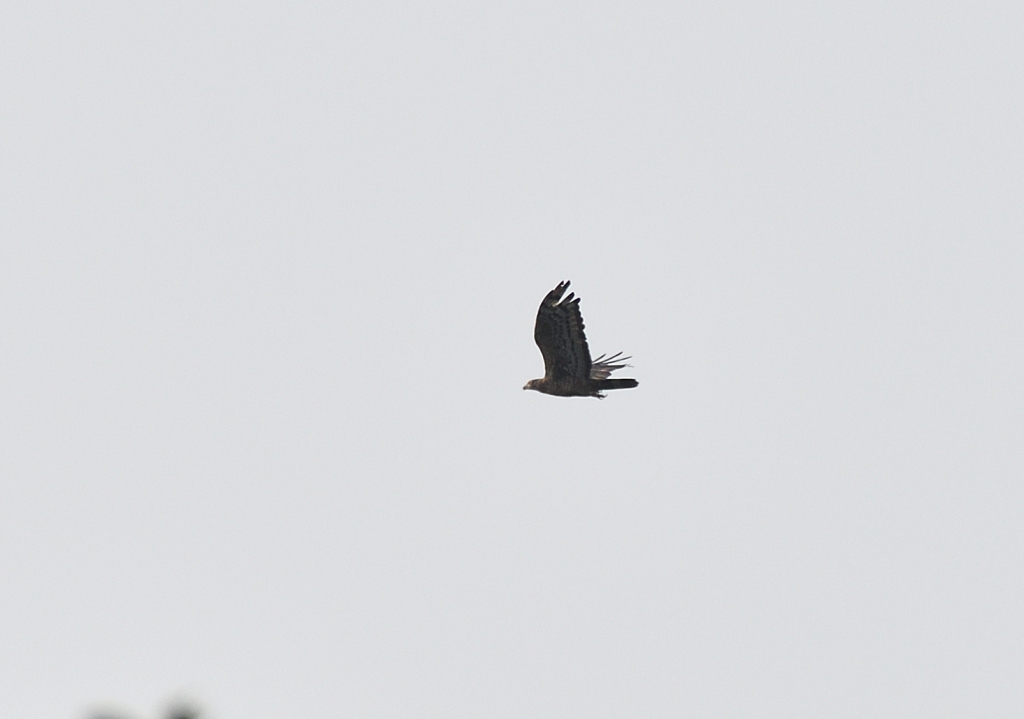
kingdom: Animalia
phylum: Chordata
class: Aves
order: Accipitriformes
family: Accipitridae
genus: Pernis
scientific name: Pernis ptilorhynchus
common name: Crested honey buzzard
